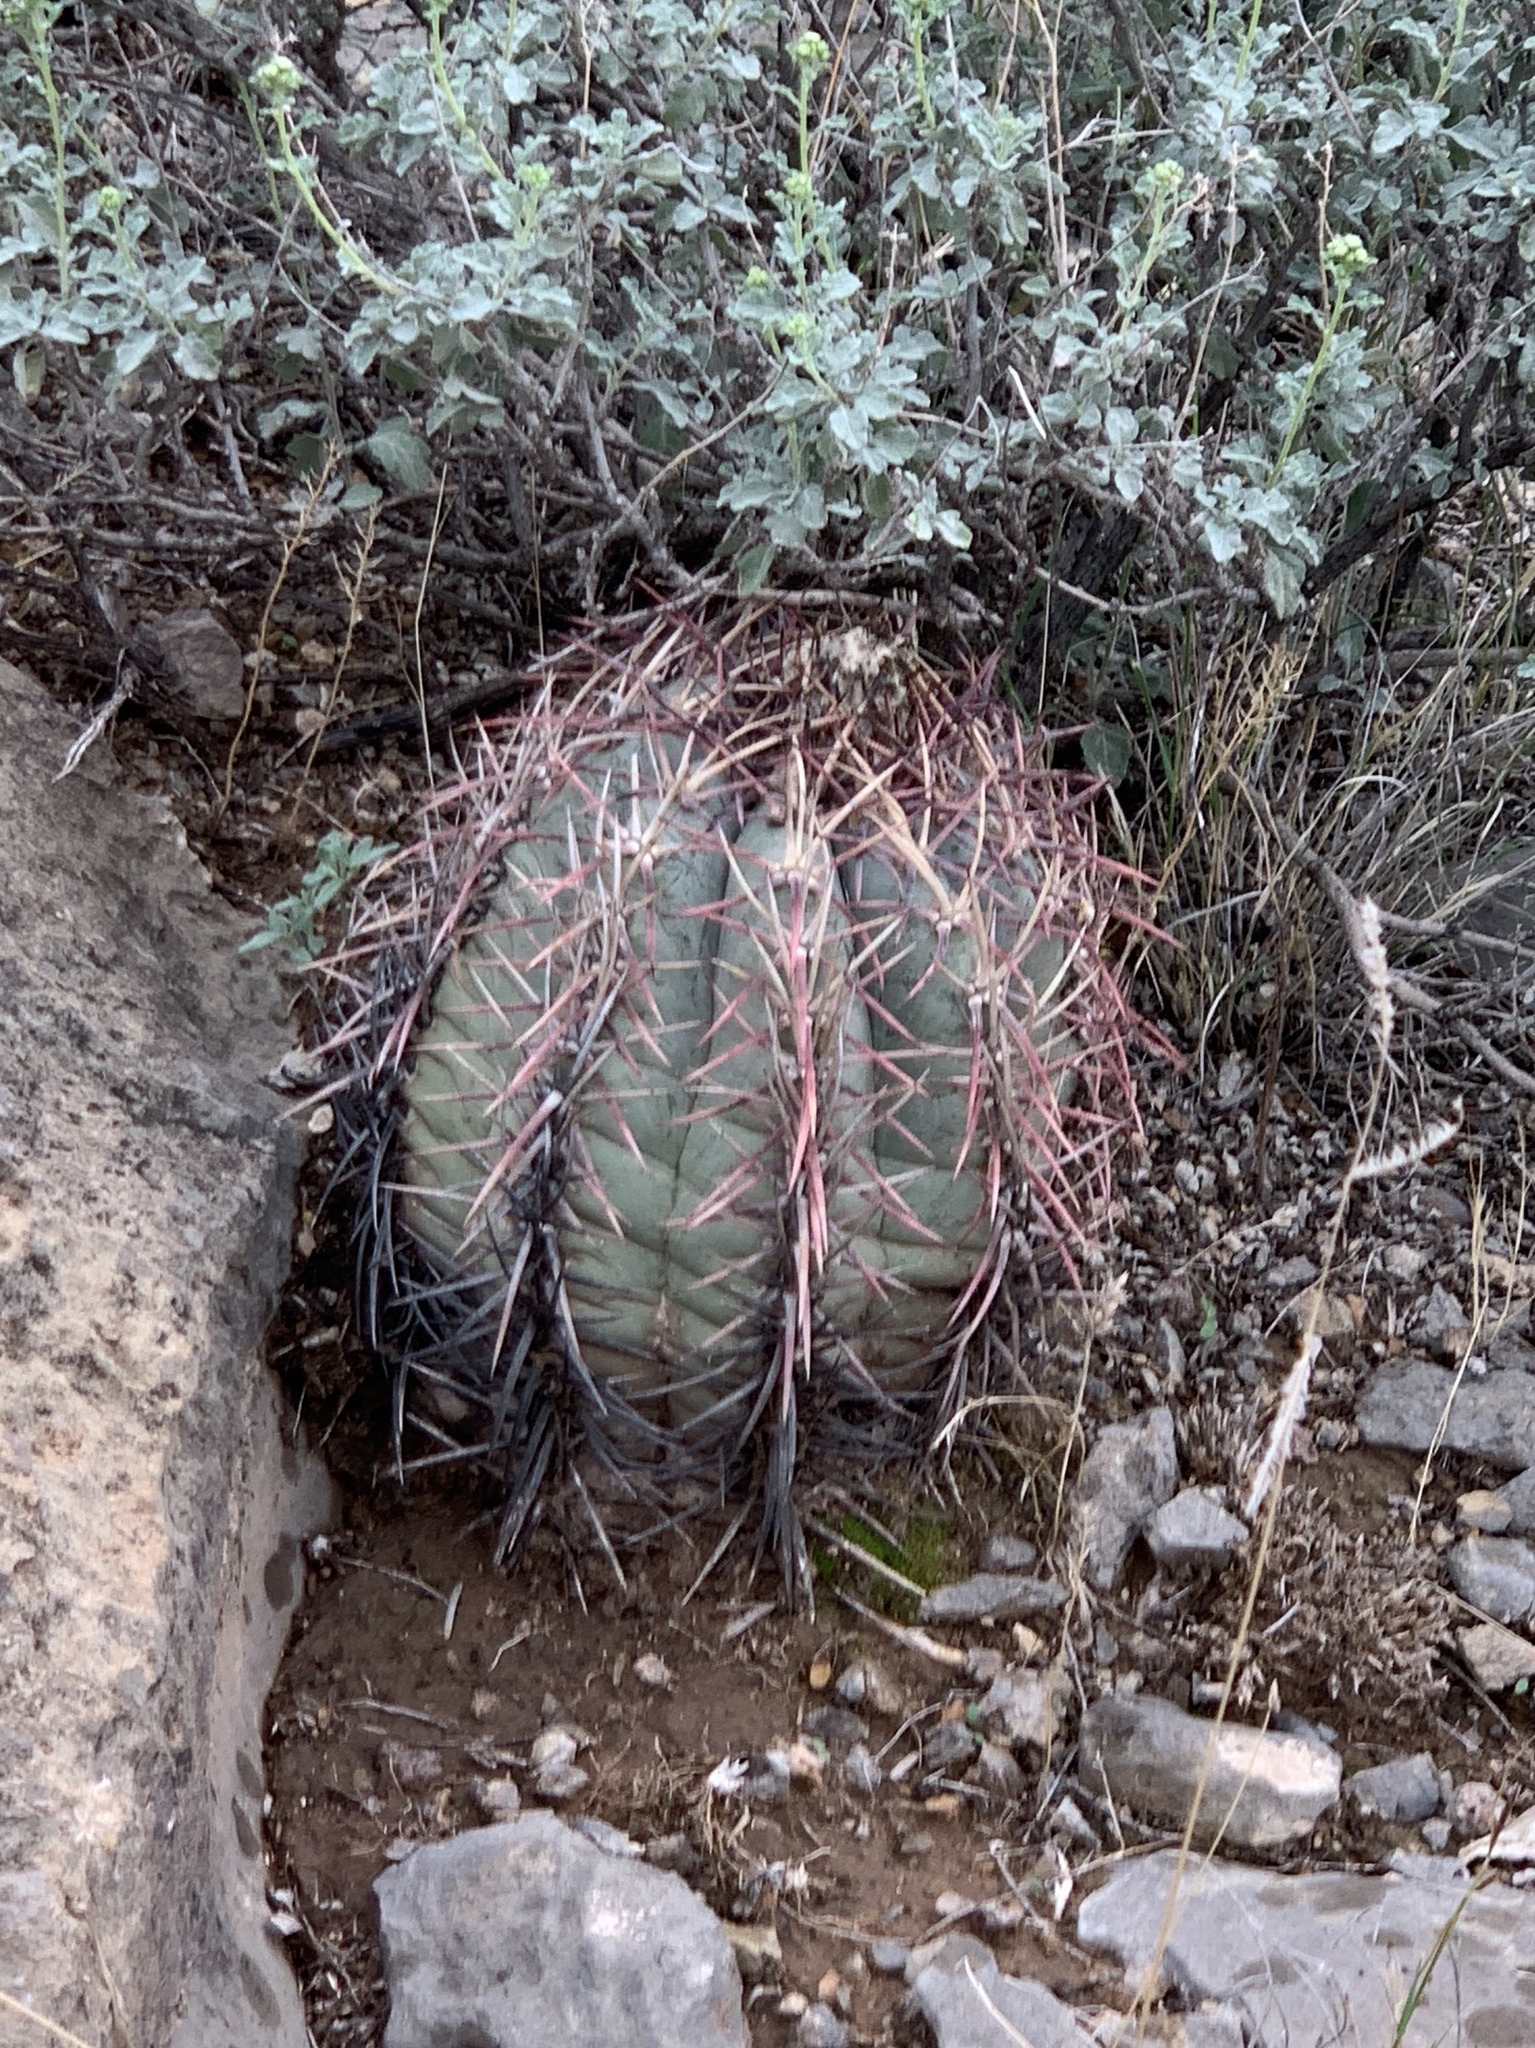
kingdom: Plantae
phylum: Tracheophyta
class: Magnoliopsida
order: Caryophyllales
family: Cactaceae
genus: Echinocactus
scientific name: Echinocactus horizonthalonius
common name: Devilshead
